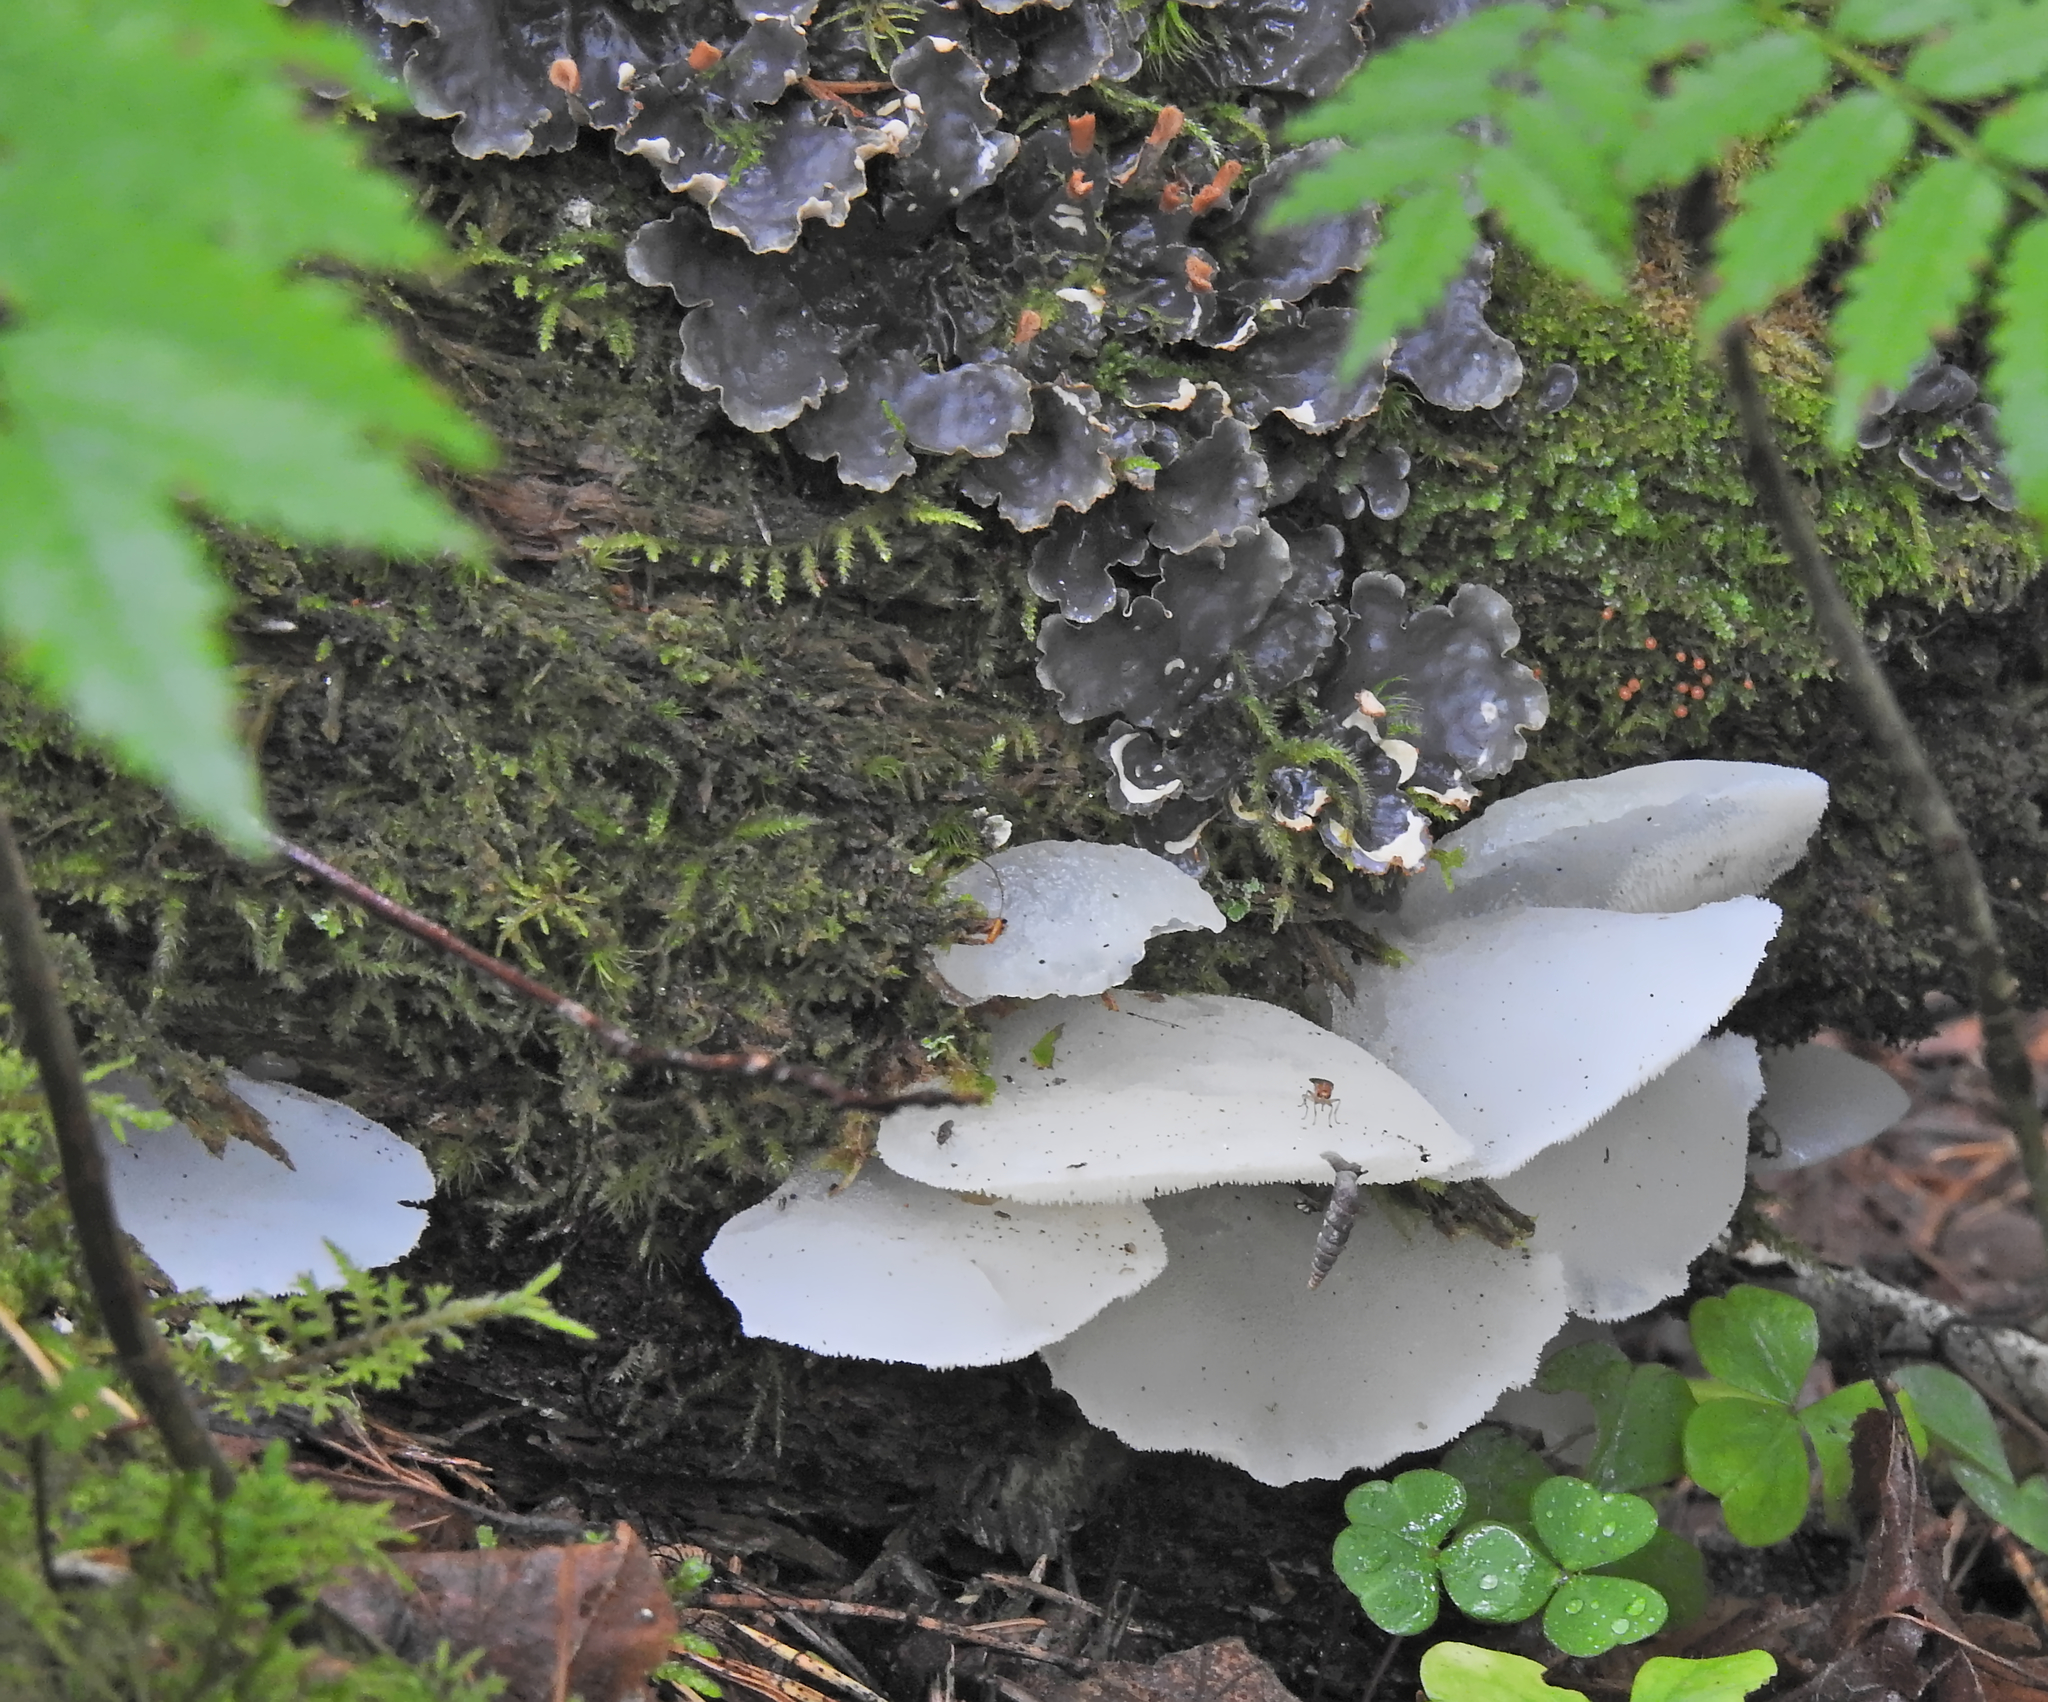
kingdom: Fungi
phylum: Basidiomycota
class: Agaricomycetes
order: Auriculariales
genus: Pseudohydnum
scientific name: Pseudohydnum gelatinosum
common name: Jelly tongue
